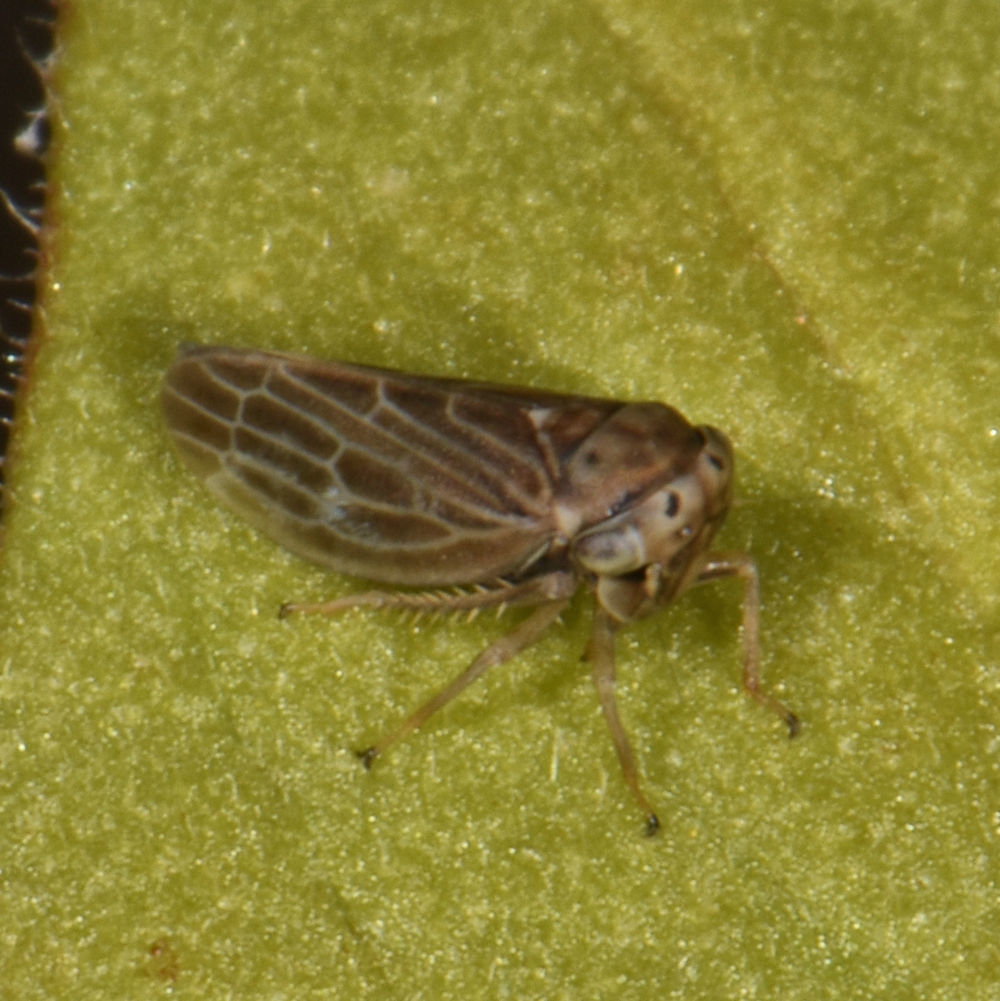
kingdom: Animalia
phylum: Arthropoda
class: Insecta
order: Hemiptera
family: Cicadellidae
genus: Agalliota
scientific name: Agalliota quadripunctata
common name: The four-spotted clover leafhopper
